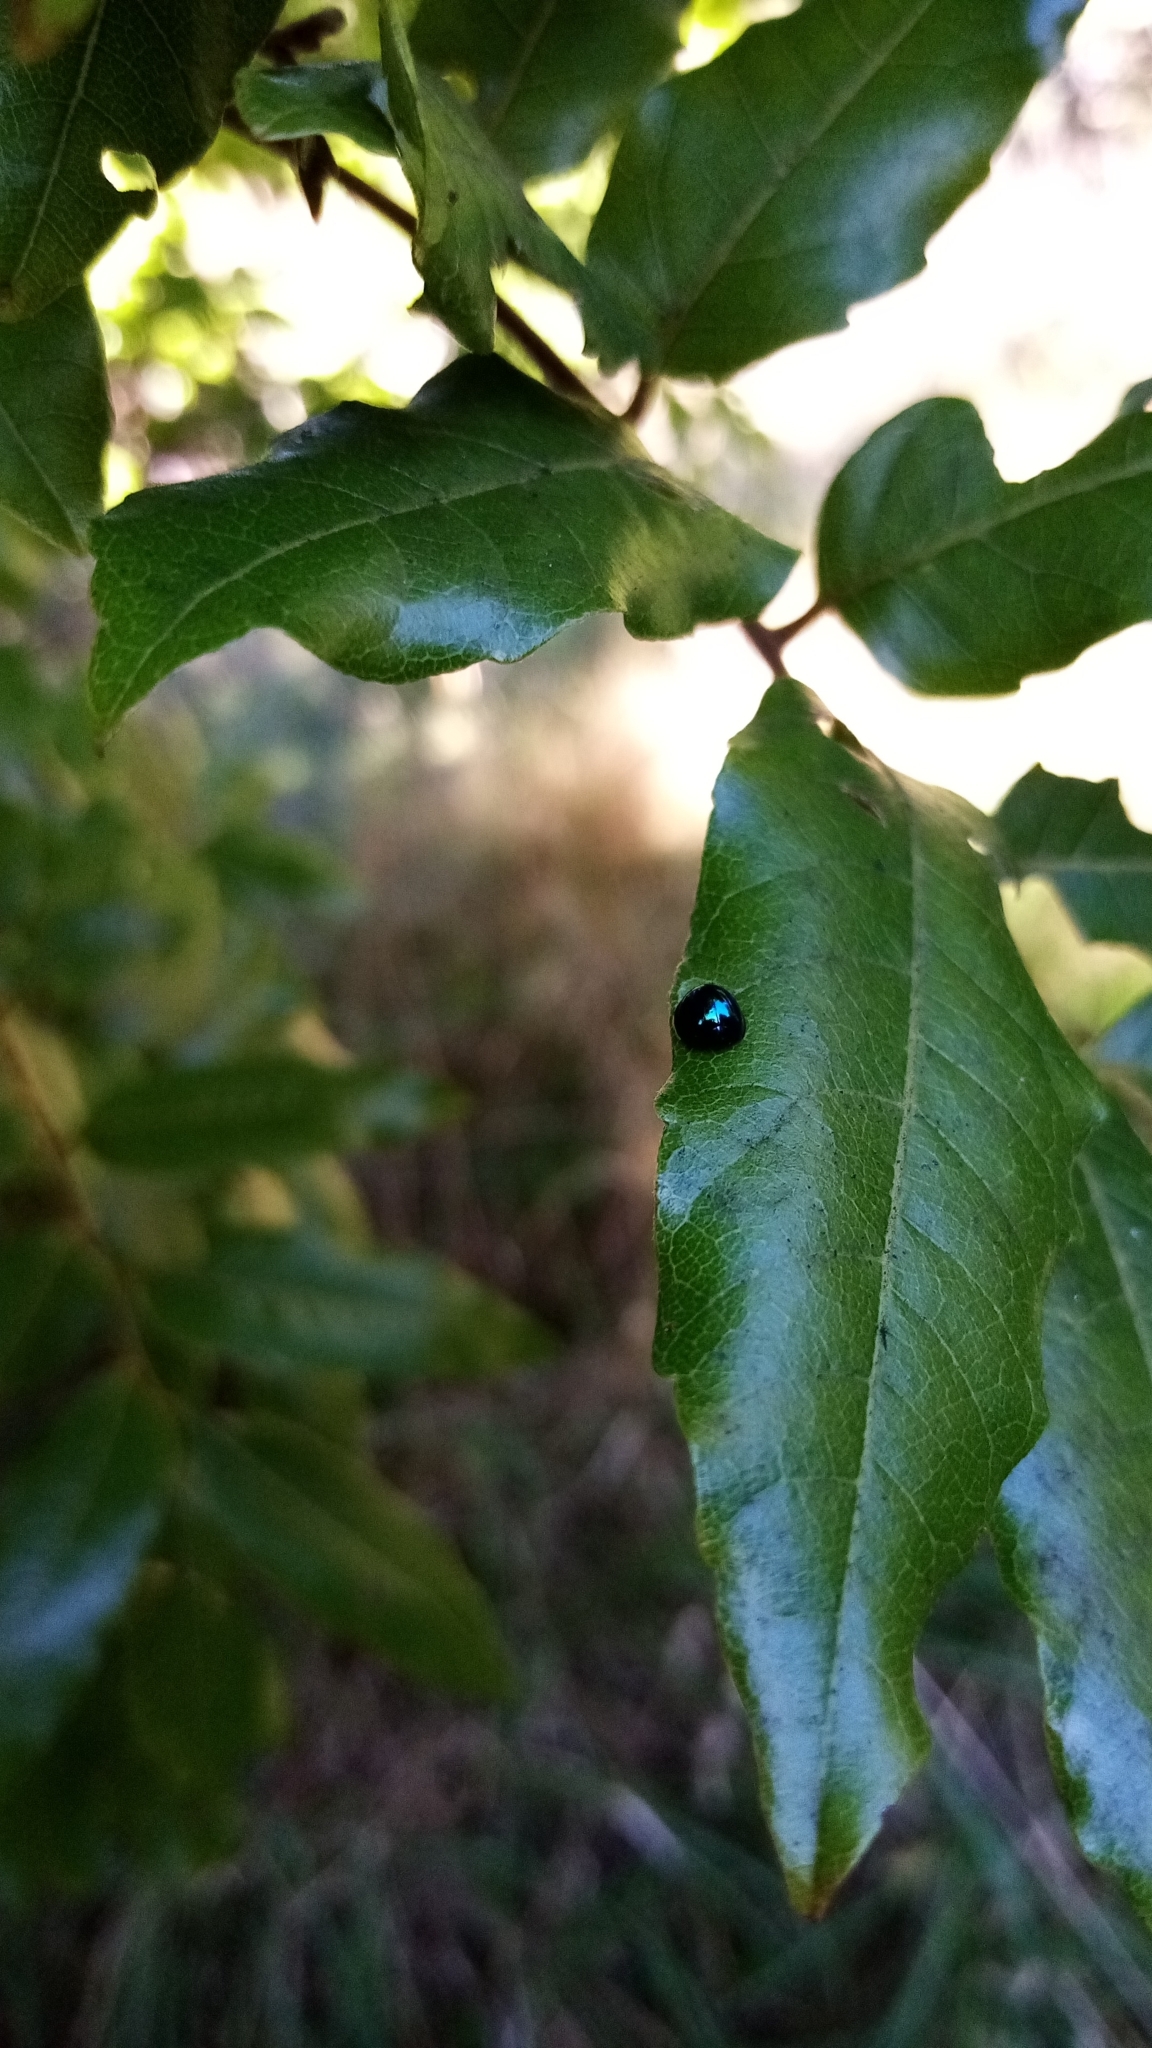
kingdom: Animalia
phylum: Arthropoda
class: Insecta
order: Coleoptera
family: Coccinellidae
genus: Halmus
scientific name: Halmus chalybeus
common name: Steel blue ladybird beetle
